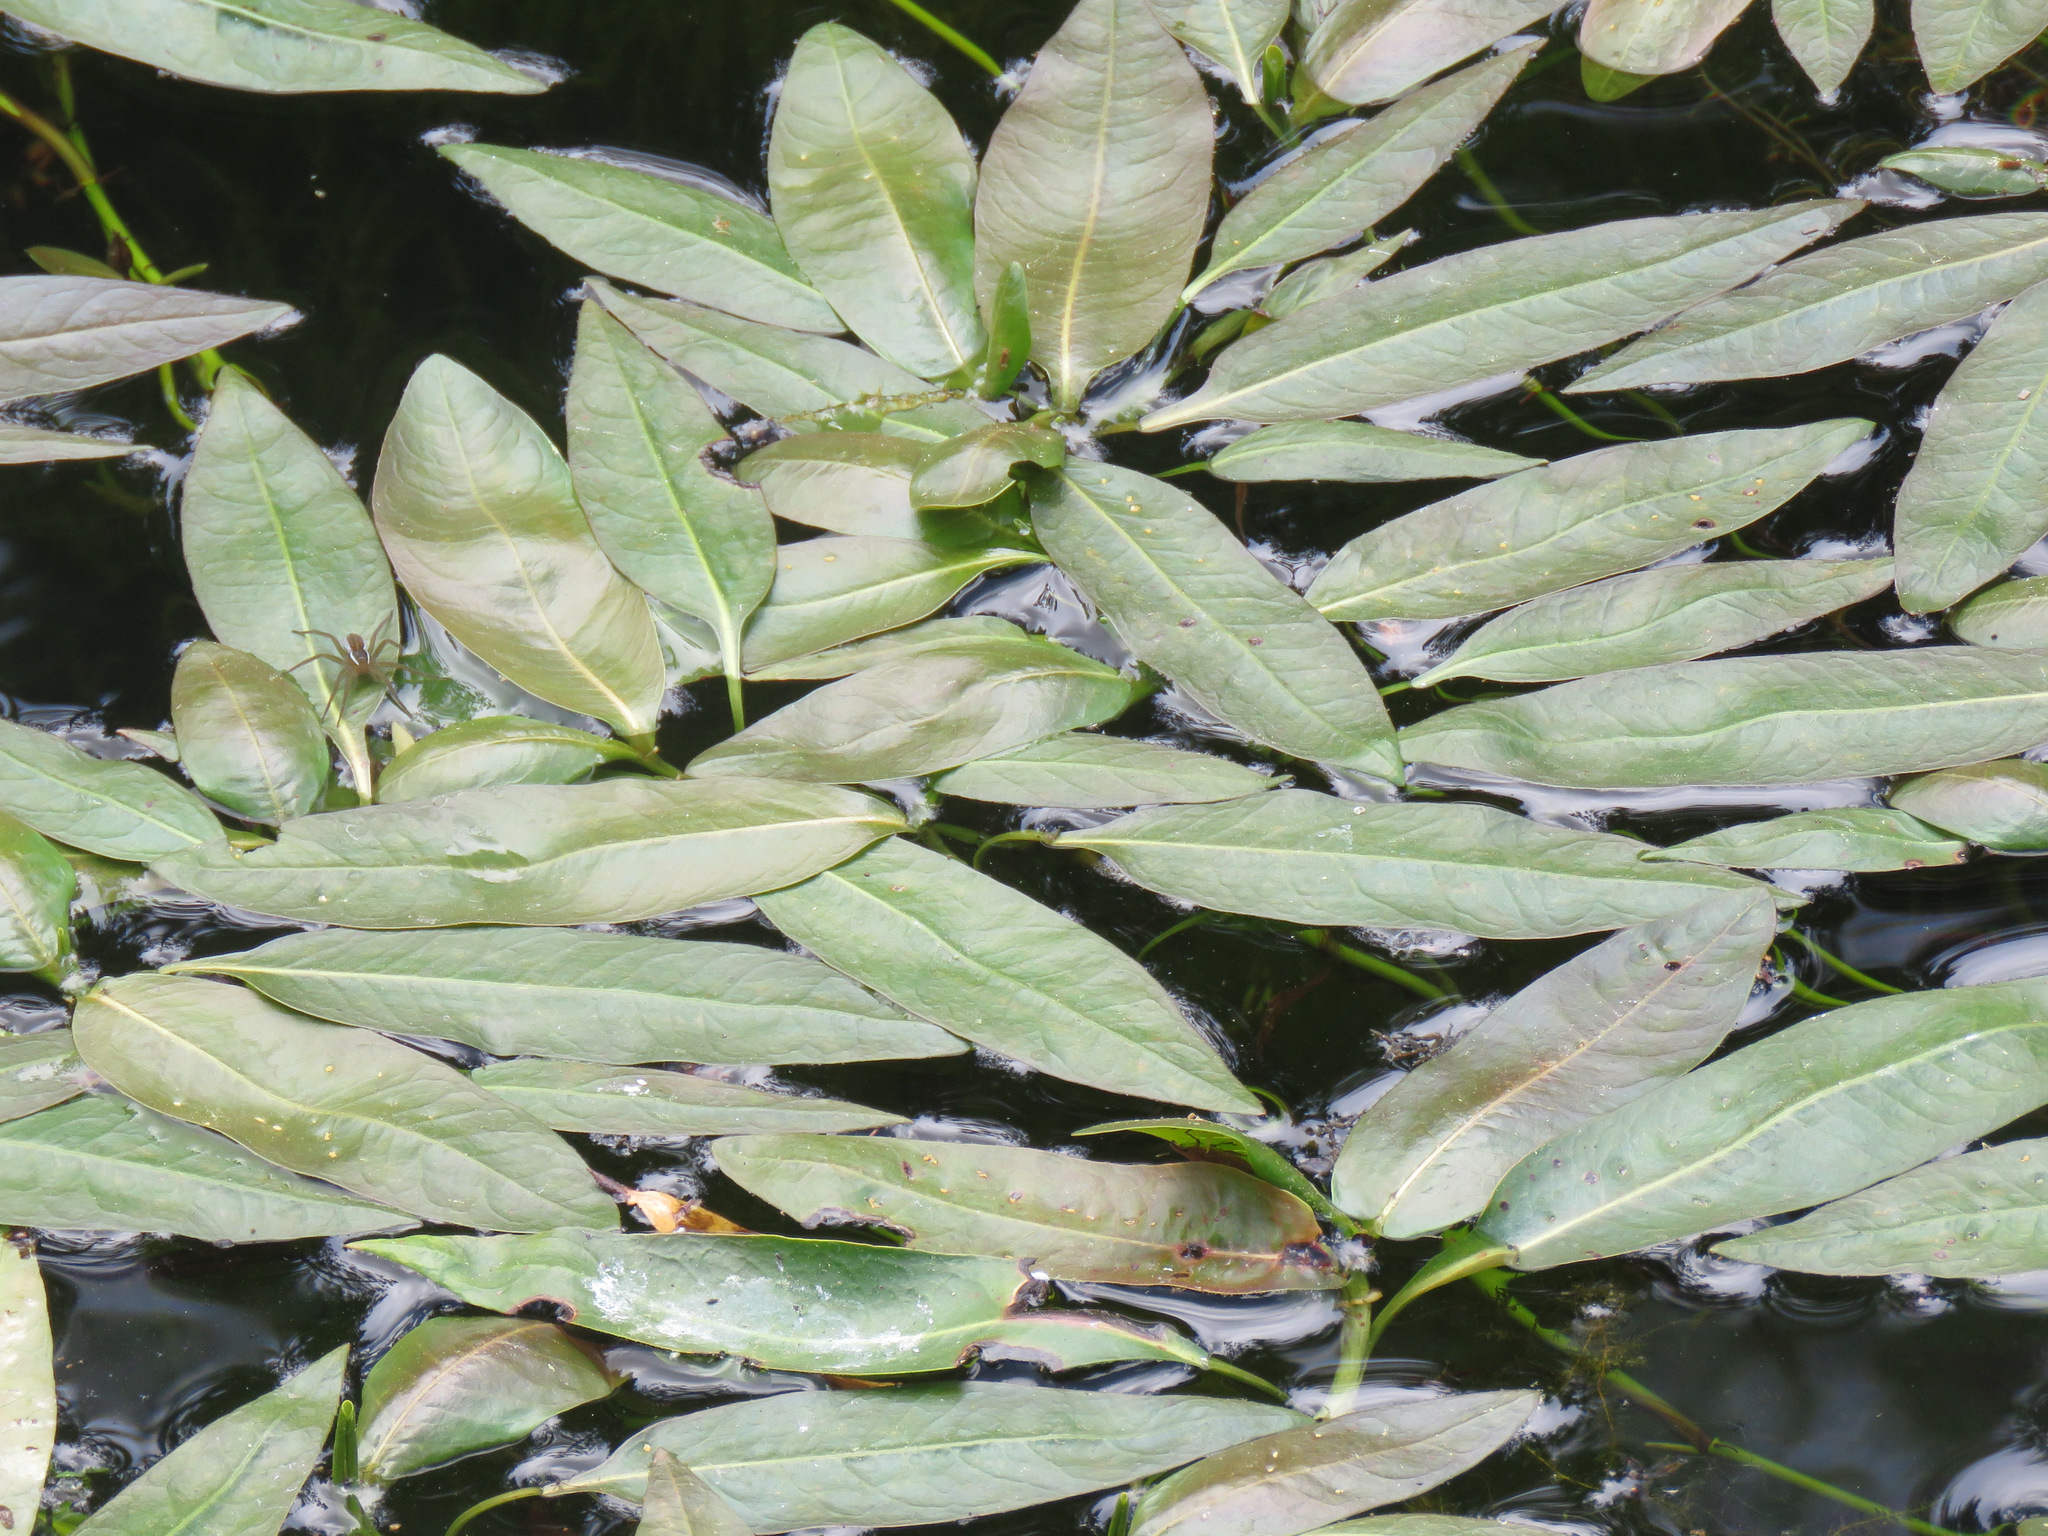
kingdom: Plantae
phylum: Tracheophyta
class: Magnoliopsida
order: Caryophyllales
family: Polygonaceae
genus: Persicaria
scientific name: Persicaria amphibia
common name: Amphibious bistort
